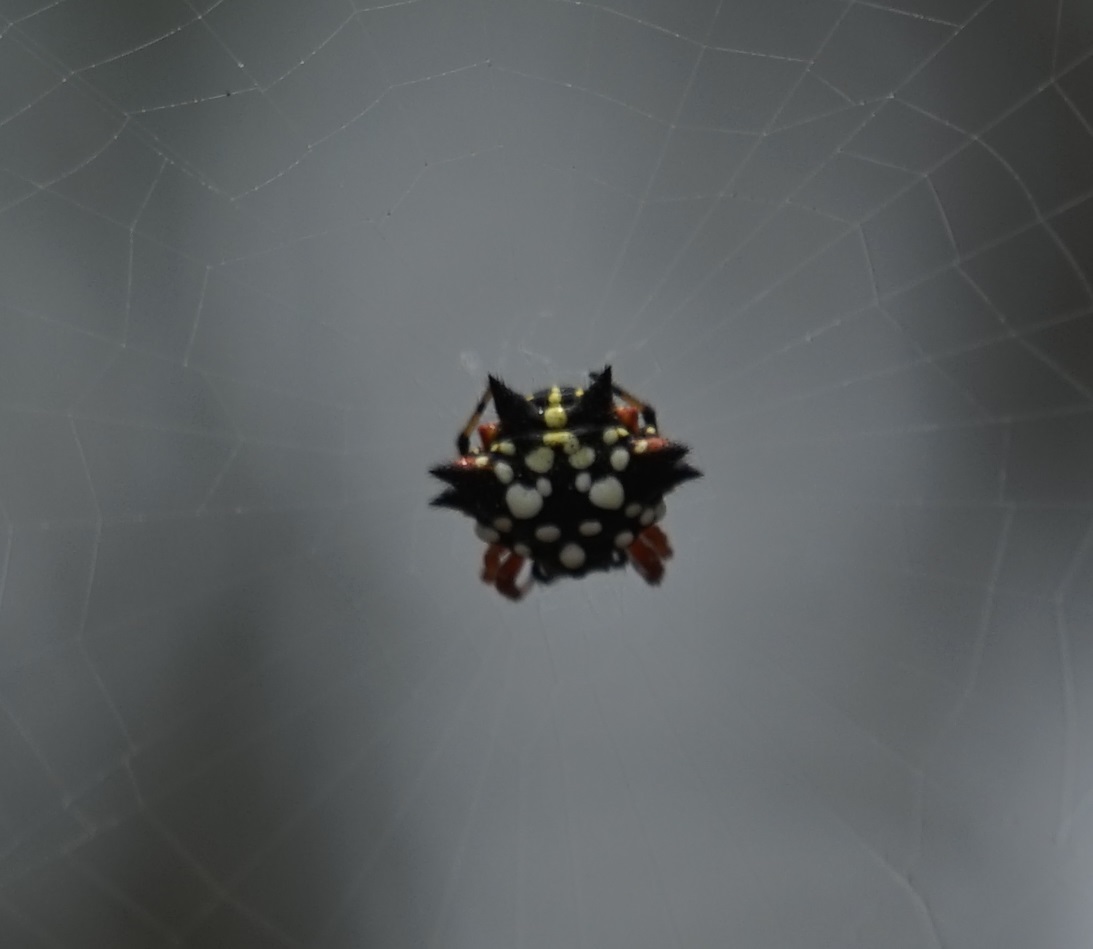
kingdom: Animalia
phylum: Arthropoda
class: Arachnida
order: Araneae
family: Araneidae
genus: Austracantha
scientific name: Austracantha minax
